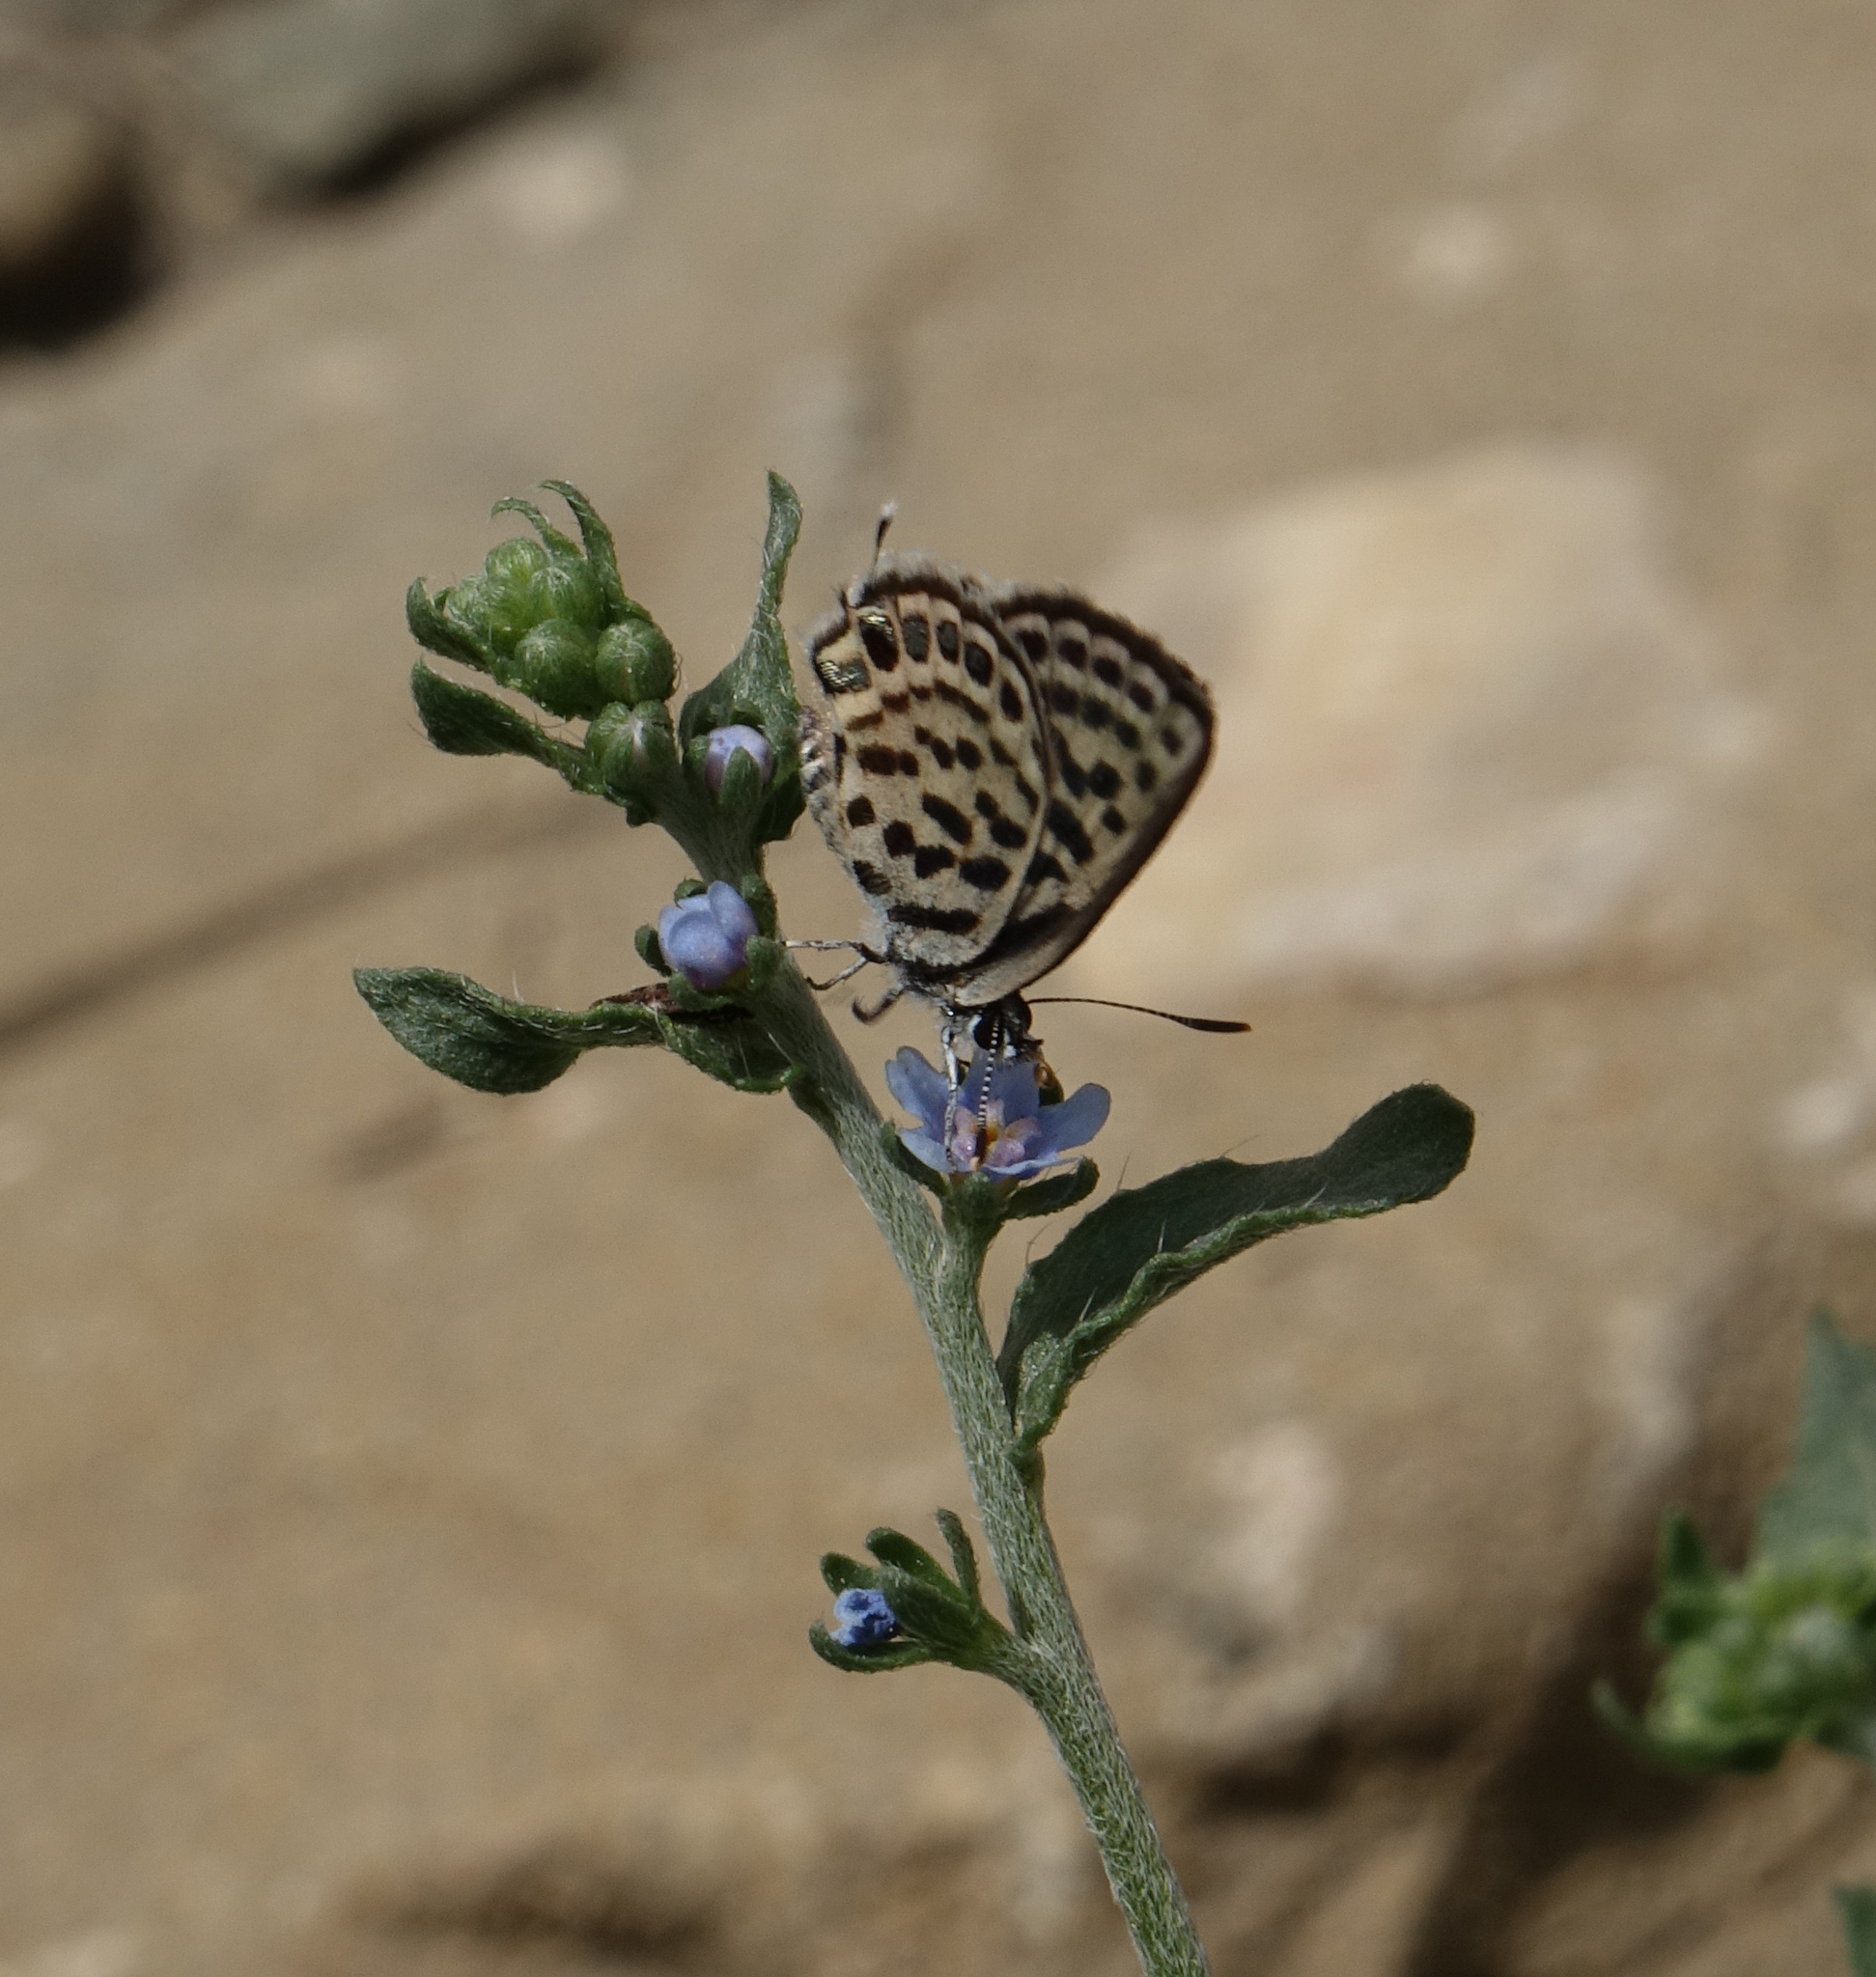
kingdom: Animalia
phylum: Arthropoda
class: Insecta
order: Lepidoptera
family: Lycaenidae
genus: Tarucus
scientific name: Tarucus balkanica
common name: Little tiger blue
